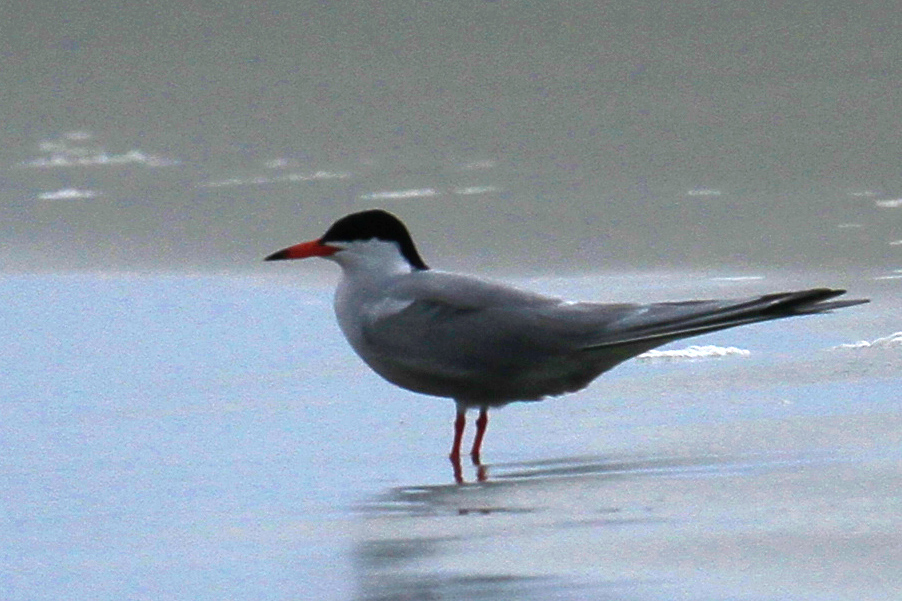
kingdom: Animalia
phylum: Chordata
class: Aves
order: Charadriiformes
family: Laridae
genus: Sterna
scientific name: Sterna hirundo
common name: Common tern
